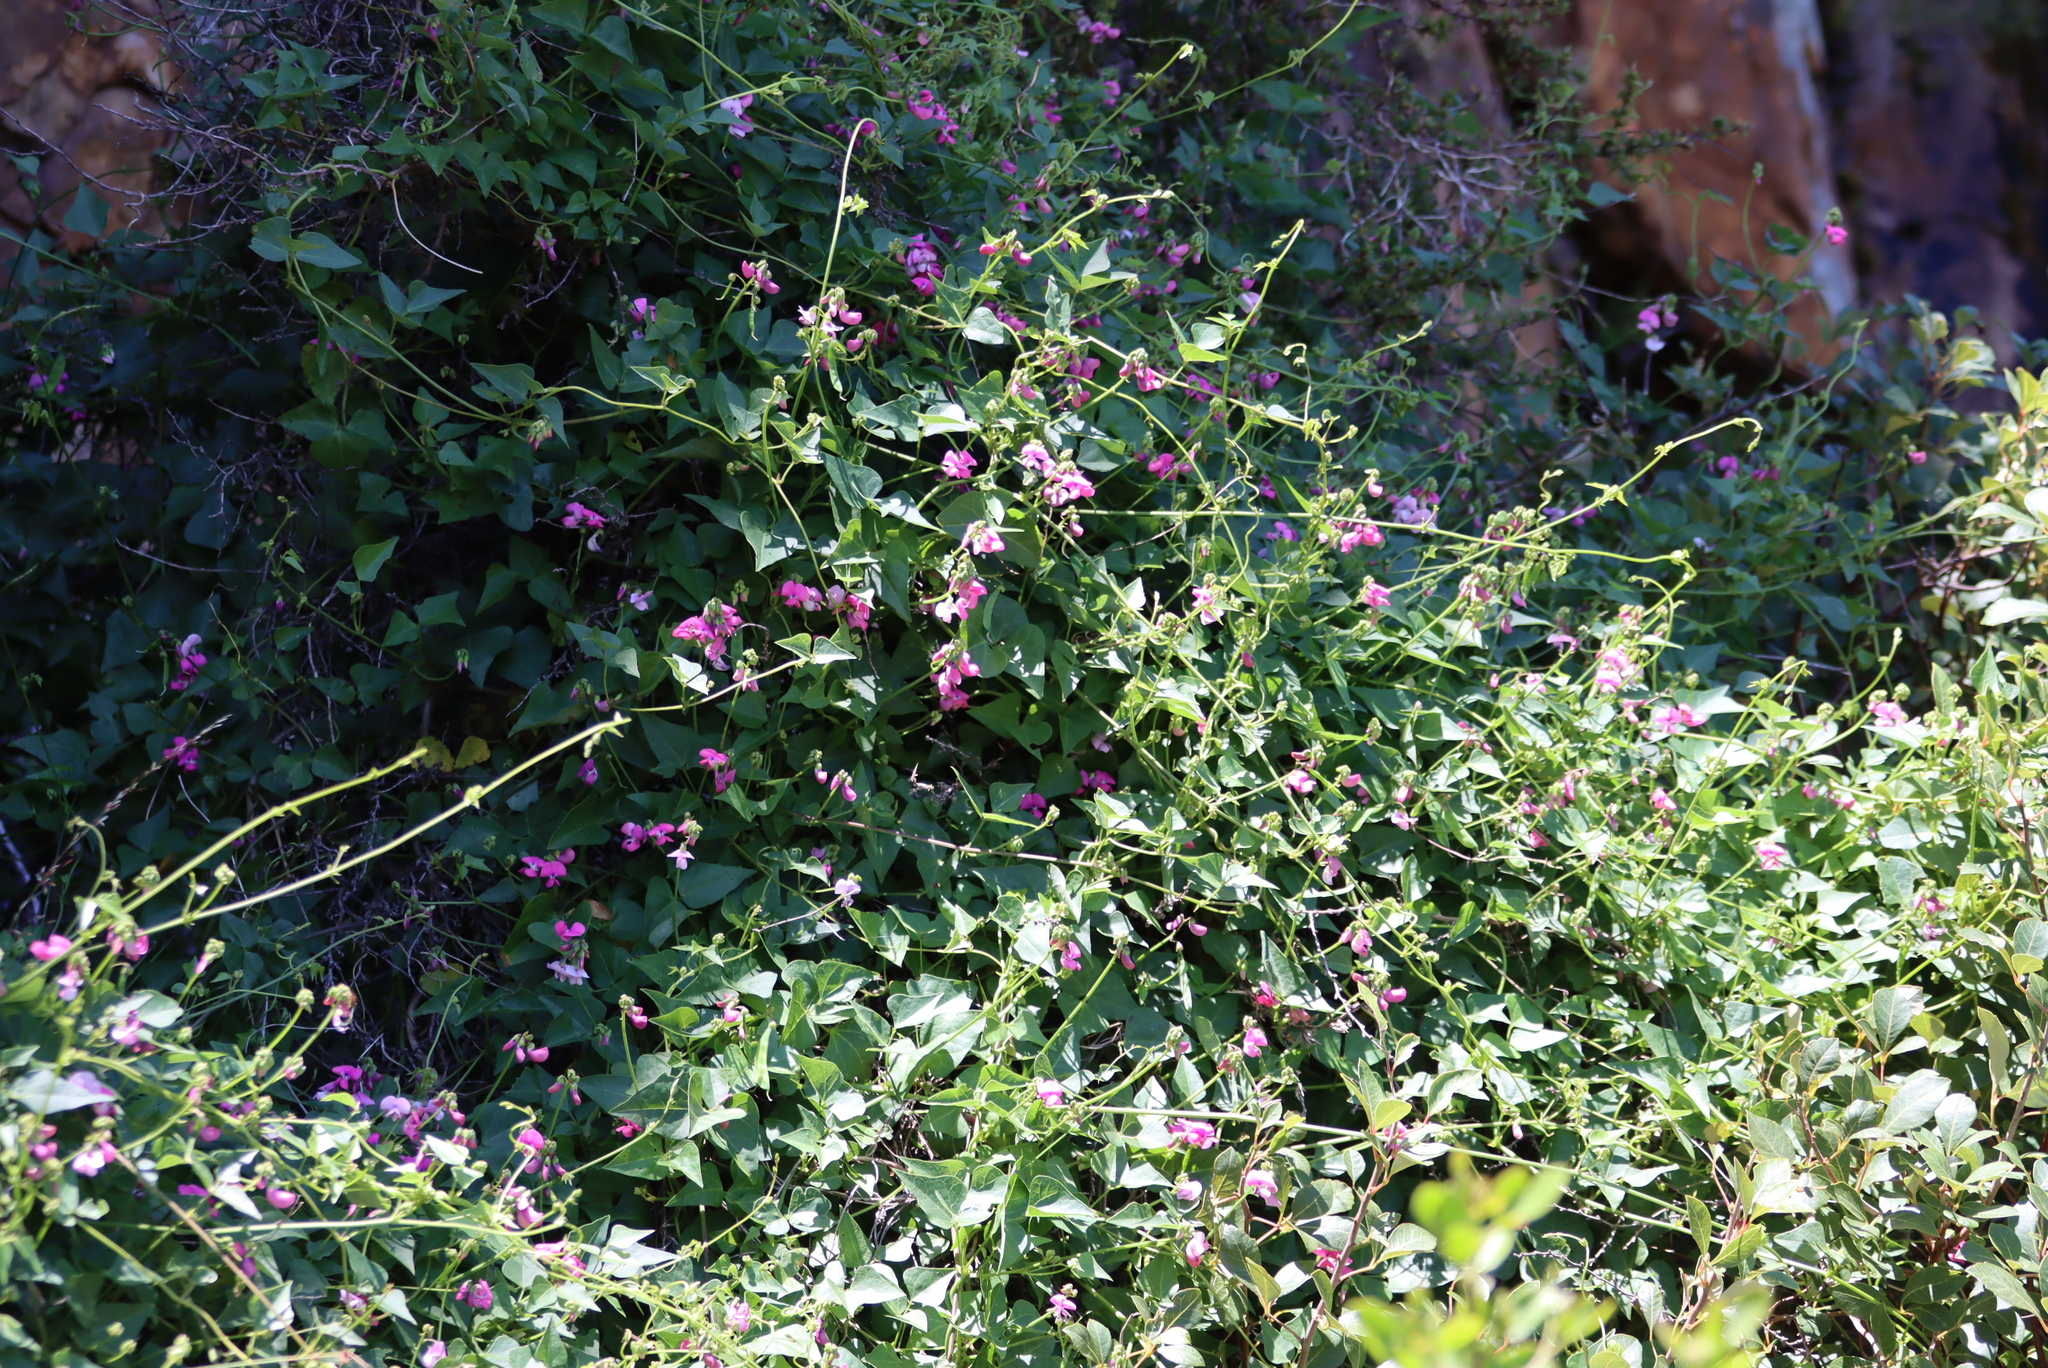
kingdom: Plantae
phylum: Tracheophyta
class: Magnoliopsida
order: Fabales
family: Fabaceae
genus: Dipogon
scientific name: Dipogon lignosus
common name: Okie bean
